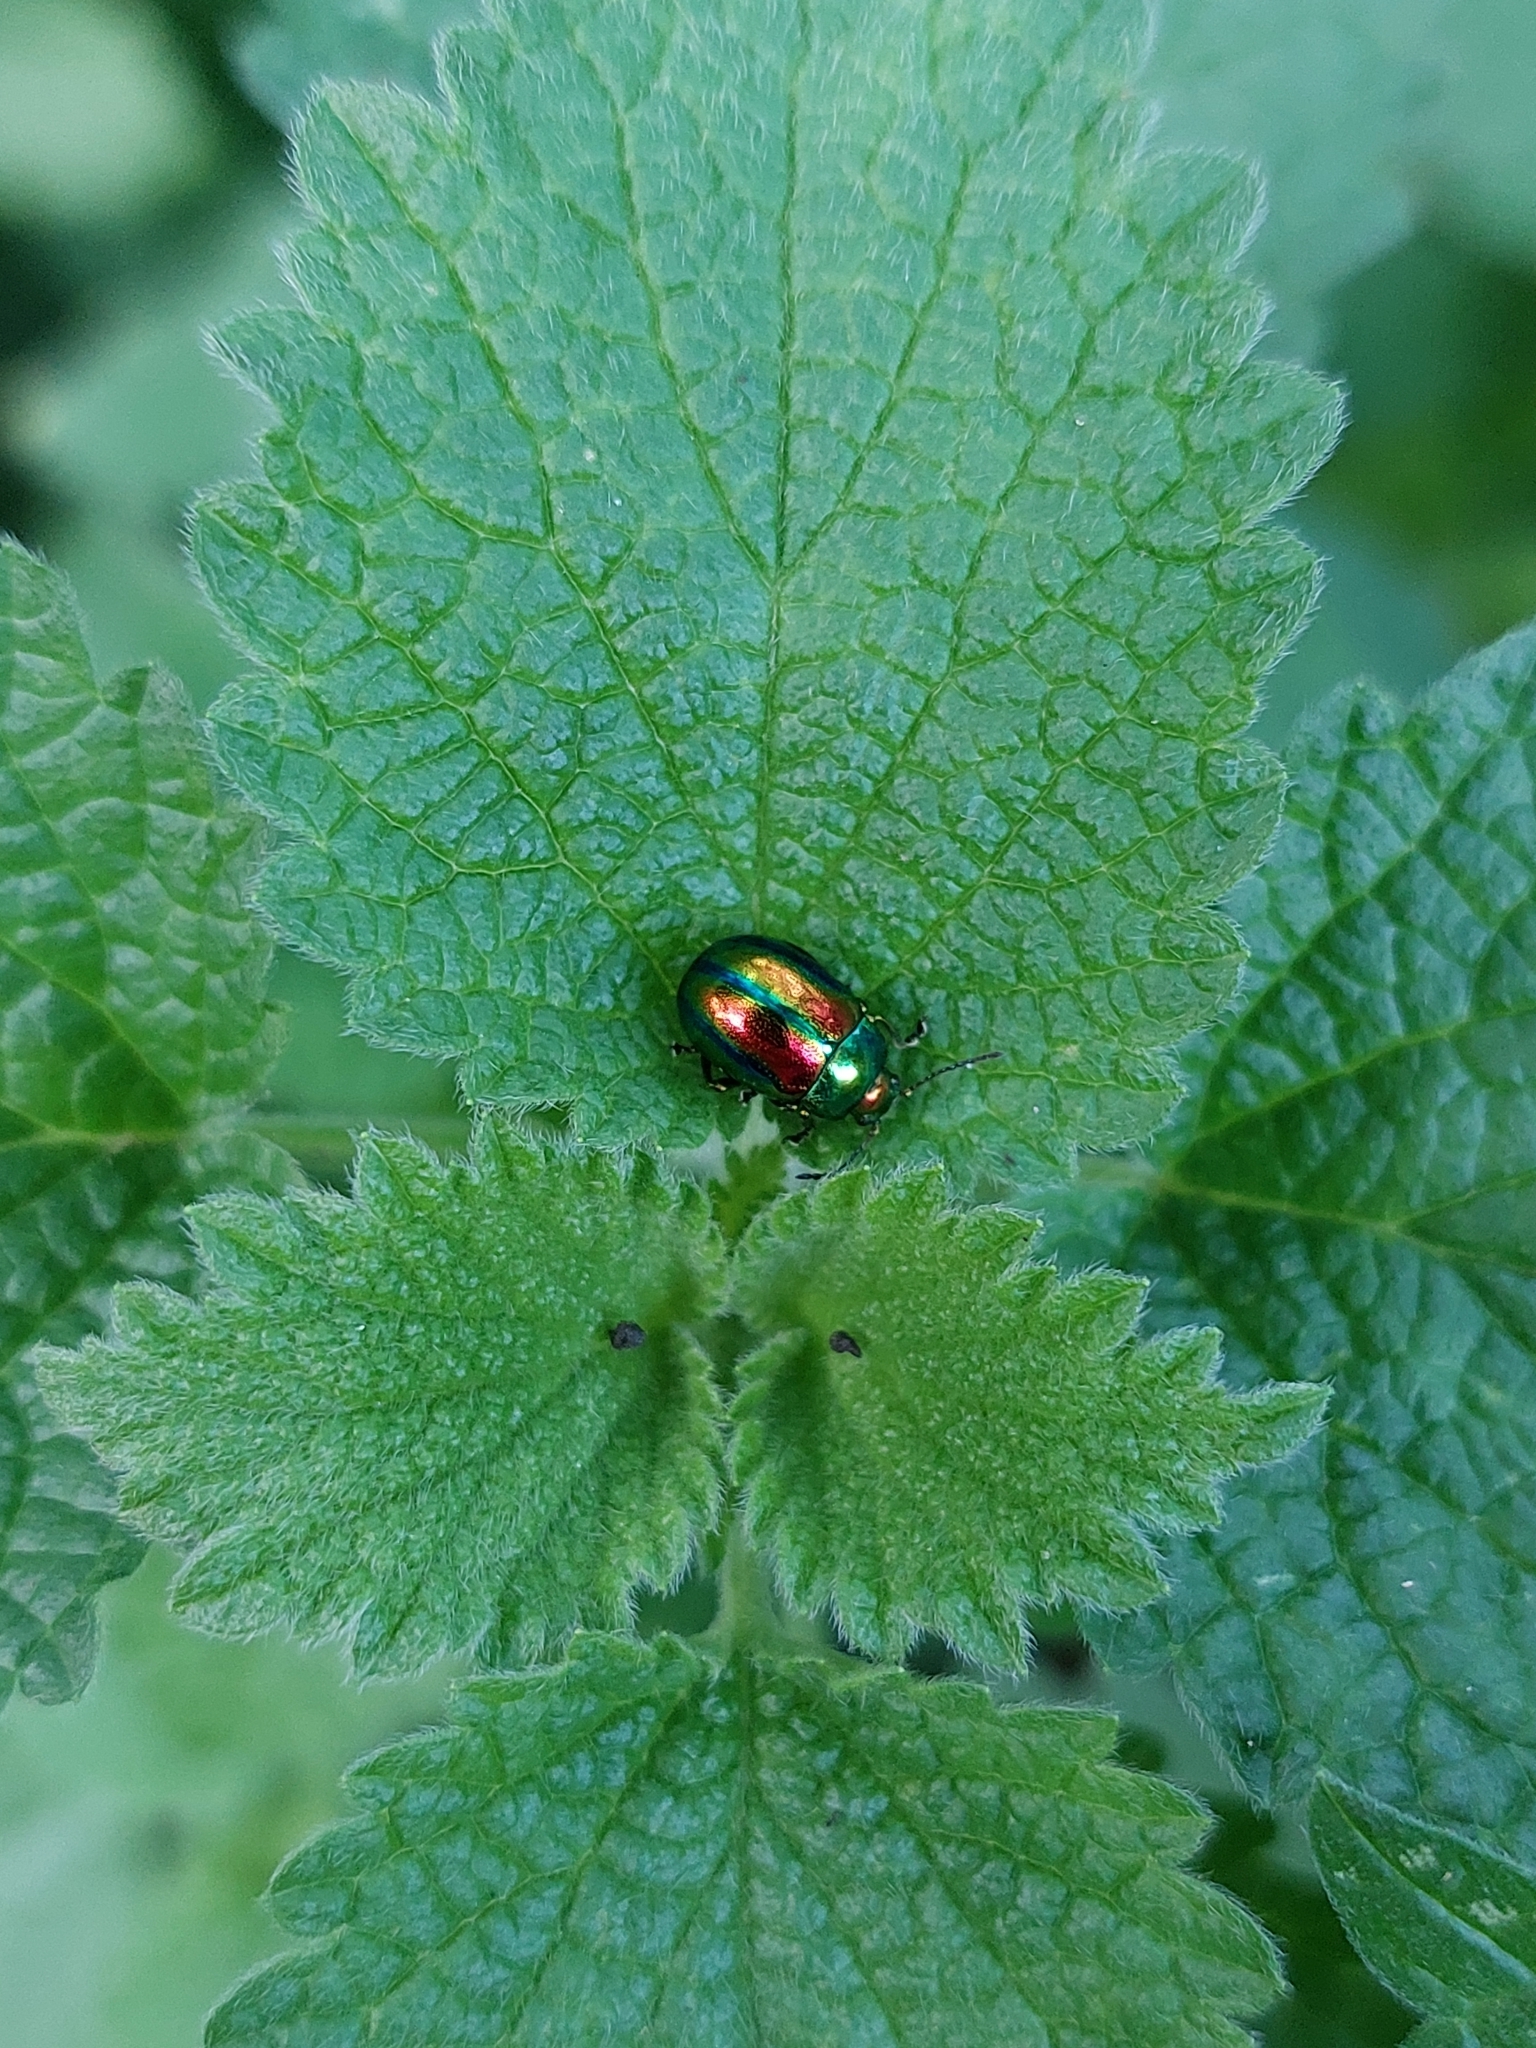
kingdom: Animalia
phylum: Arthropoda
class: Insecta
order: Coleoptera
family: Chrysomelidae
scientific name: Chrysomelidae
